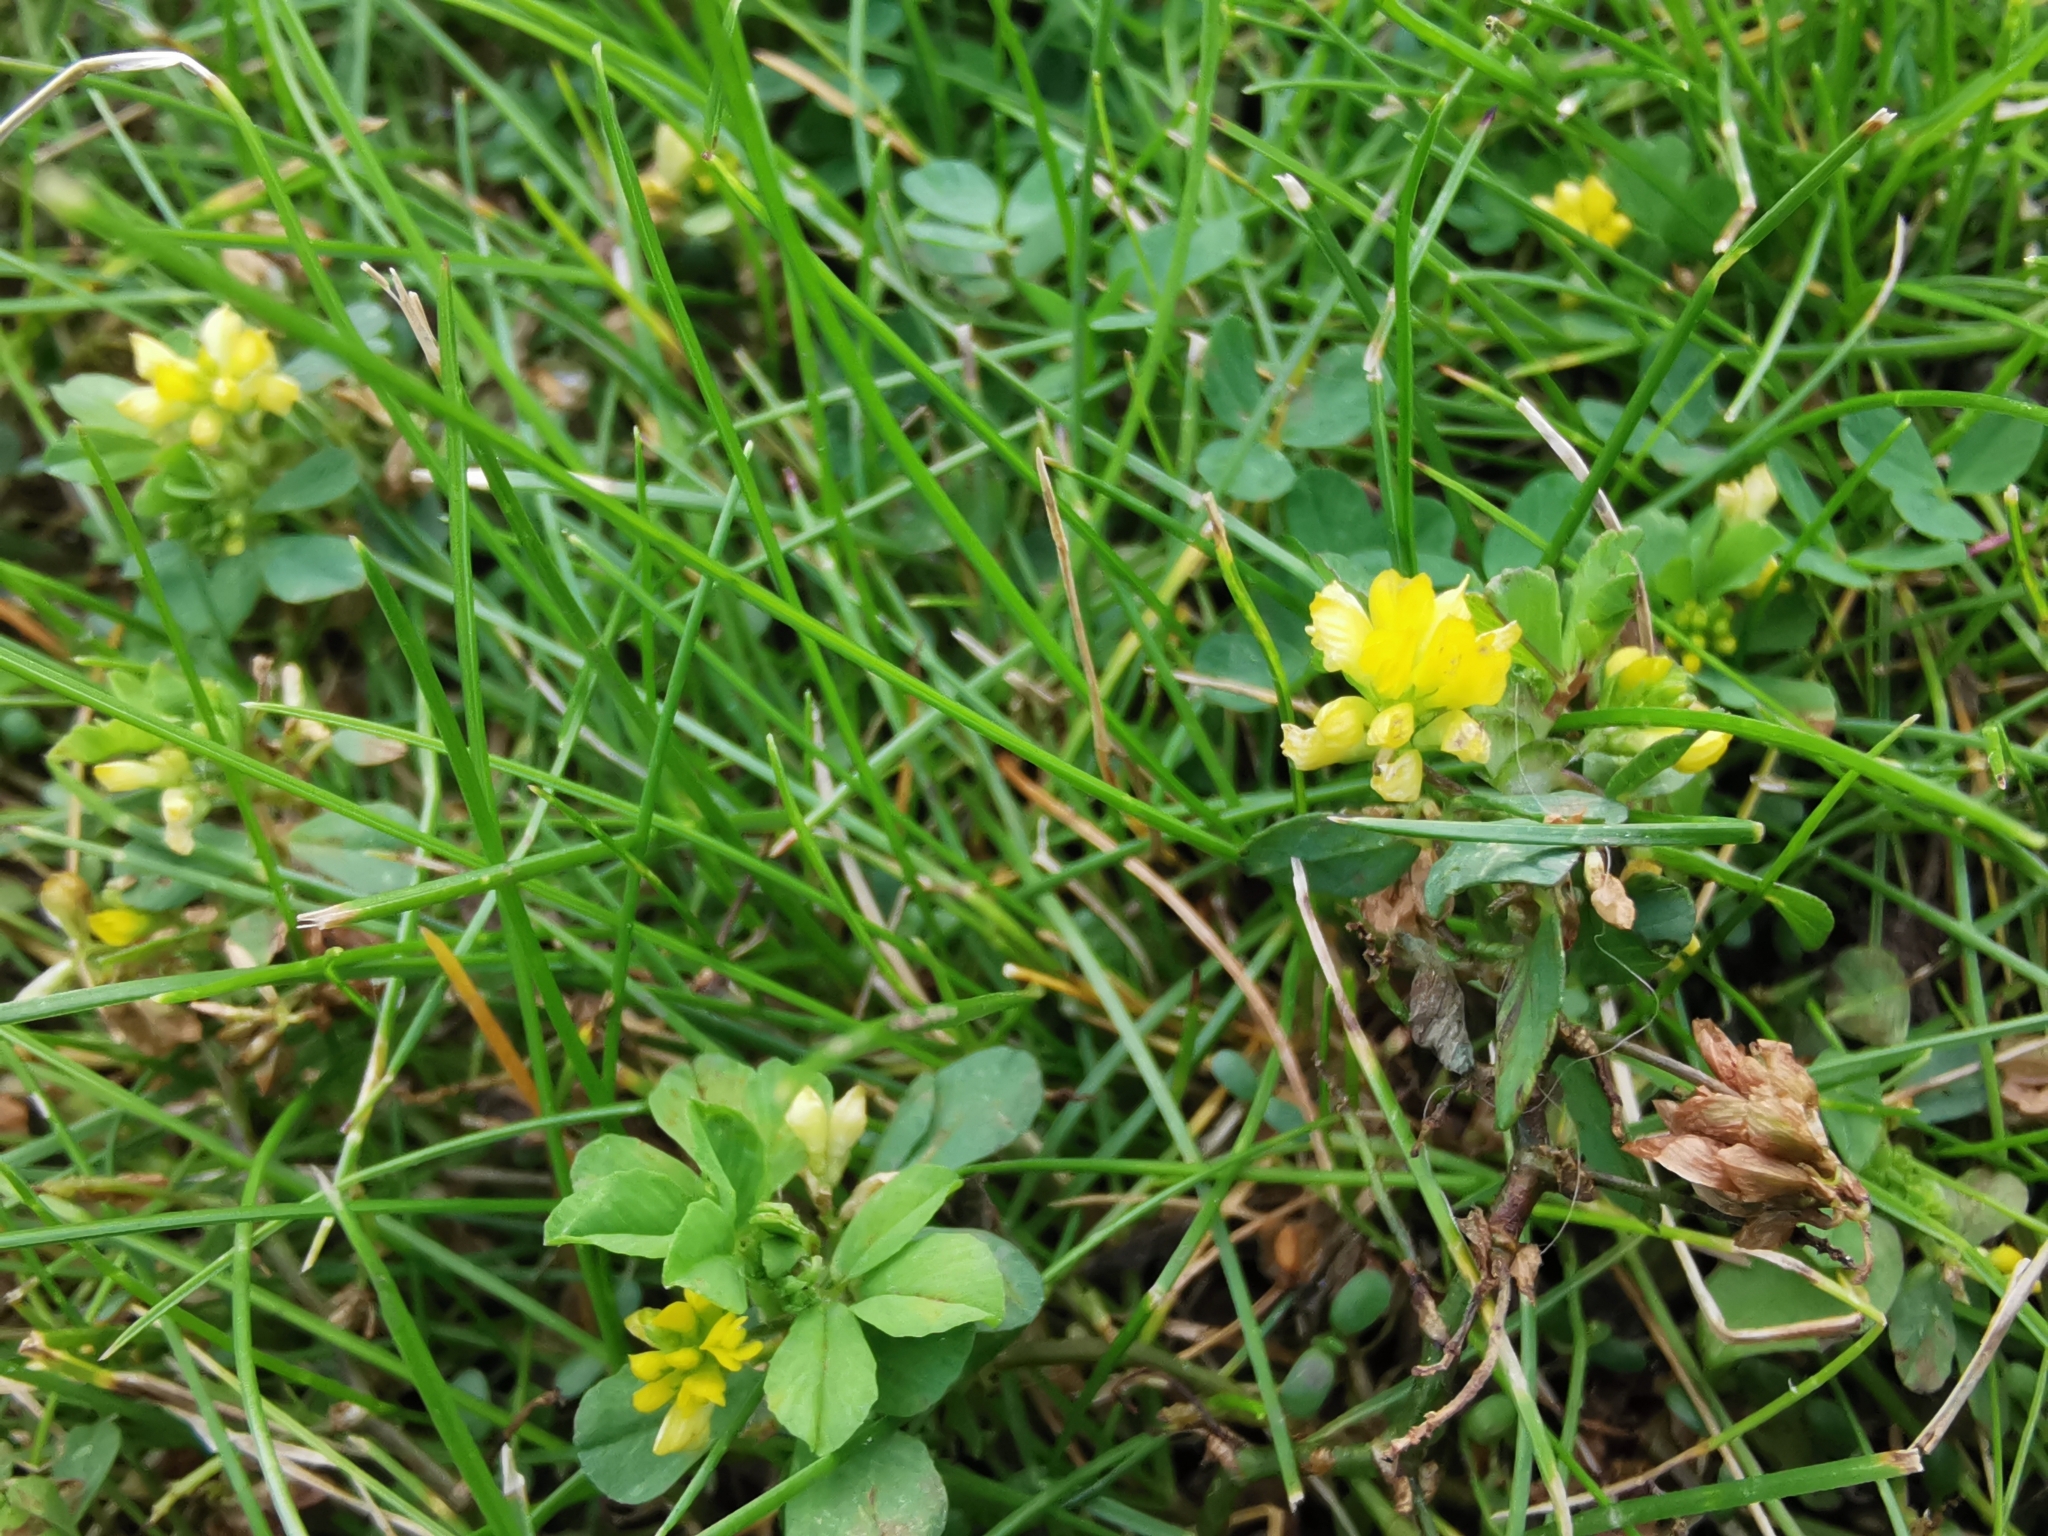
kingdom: Plantae
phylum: Tracheophyta
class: Magnoliopsida
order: Fabales
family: Fabaceae
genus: Trifolium
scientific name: Trifolium dubium
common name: Suckling clover
